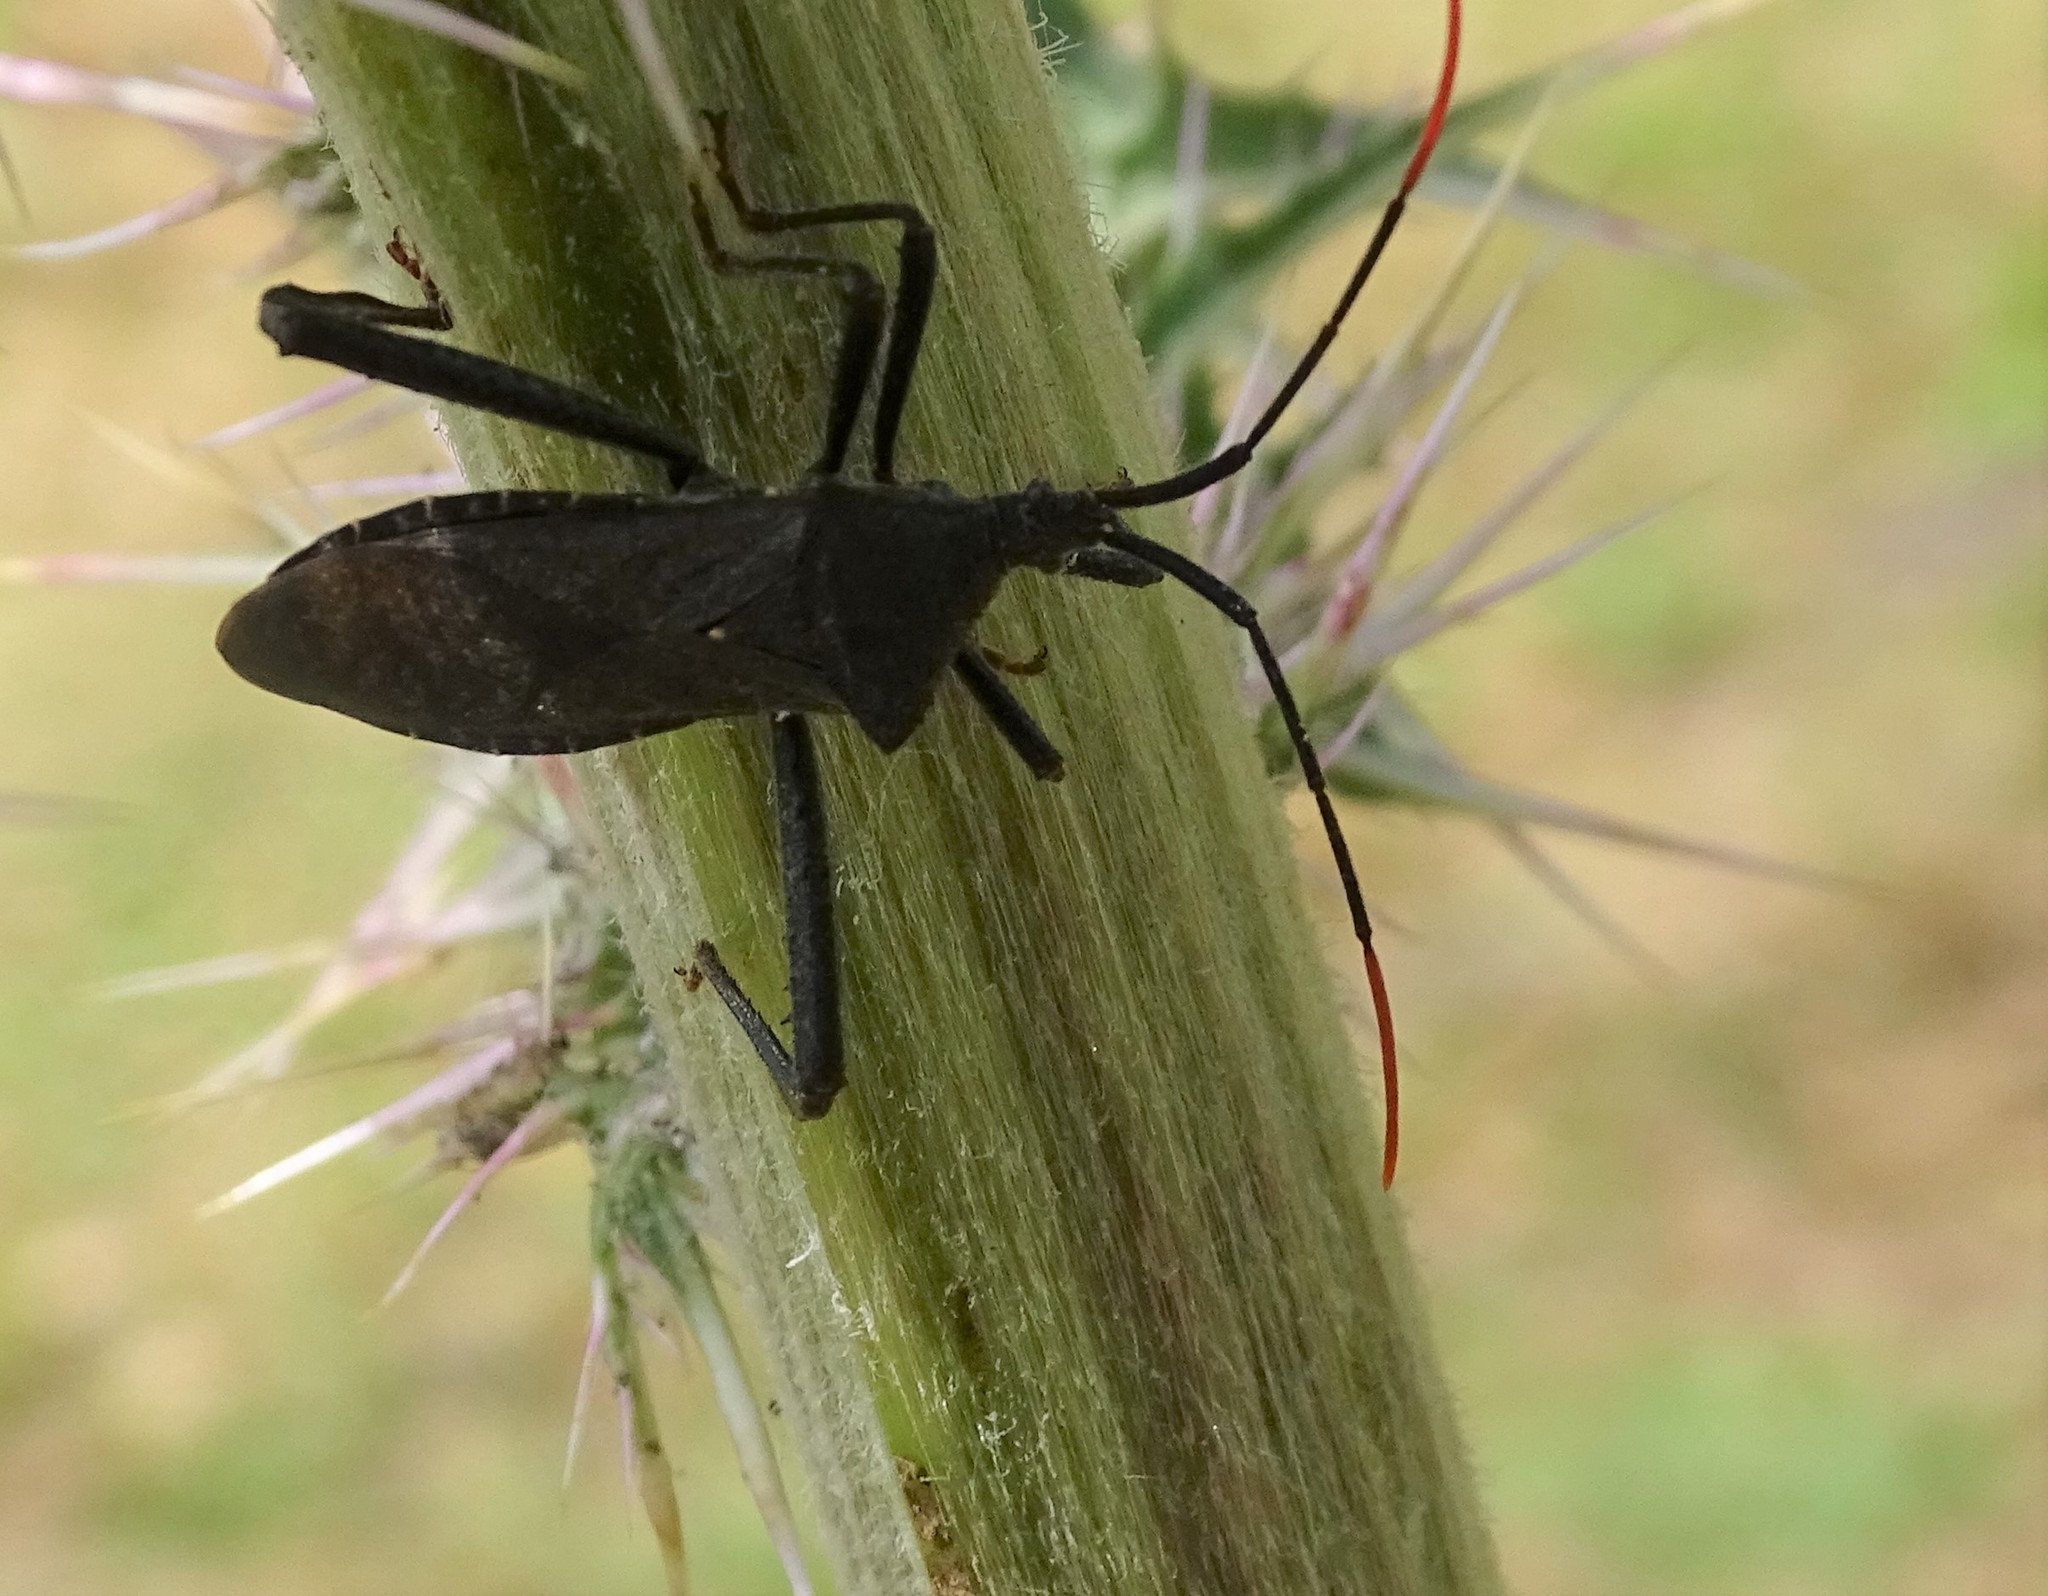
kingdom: Animalia
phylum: Arthropoda
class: Insecta
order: Hemiptera
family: Coreidae
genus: Acanthocephala
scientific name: Acanthocephala terminalis
